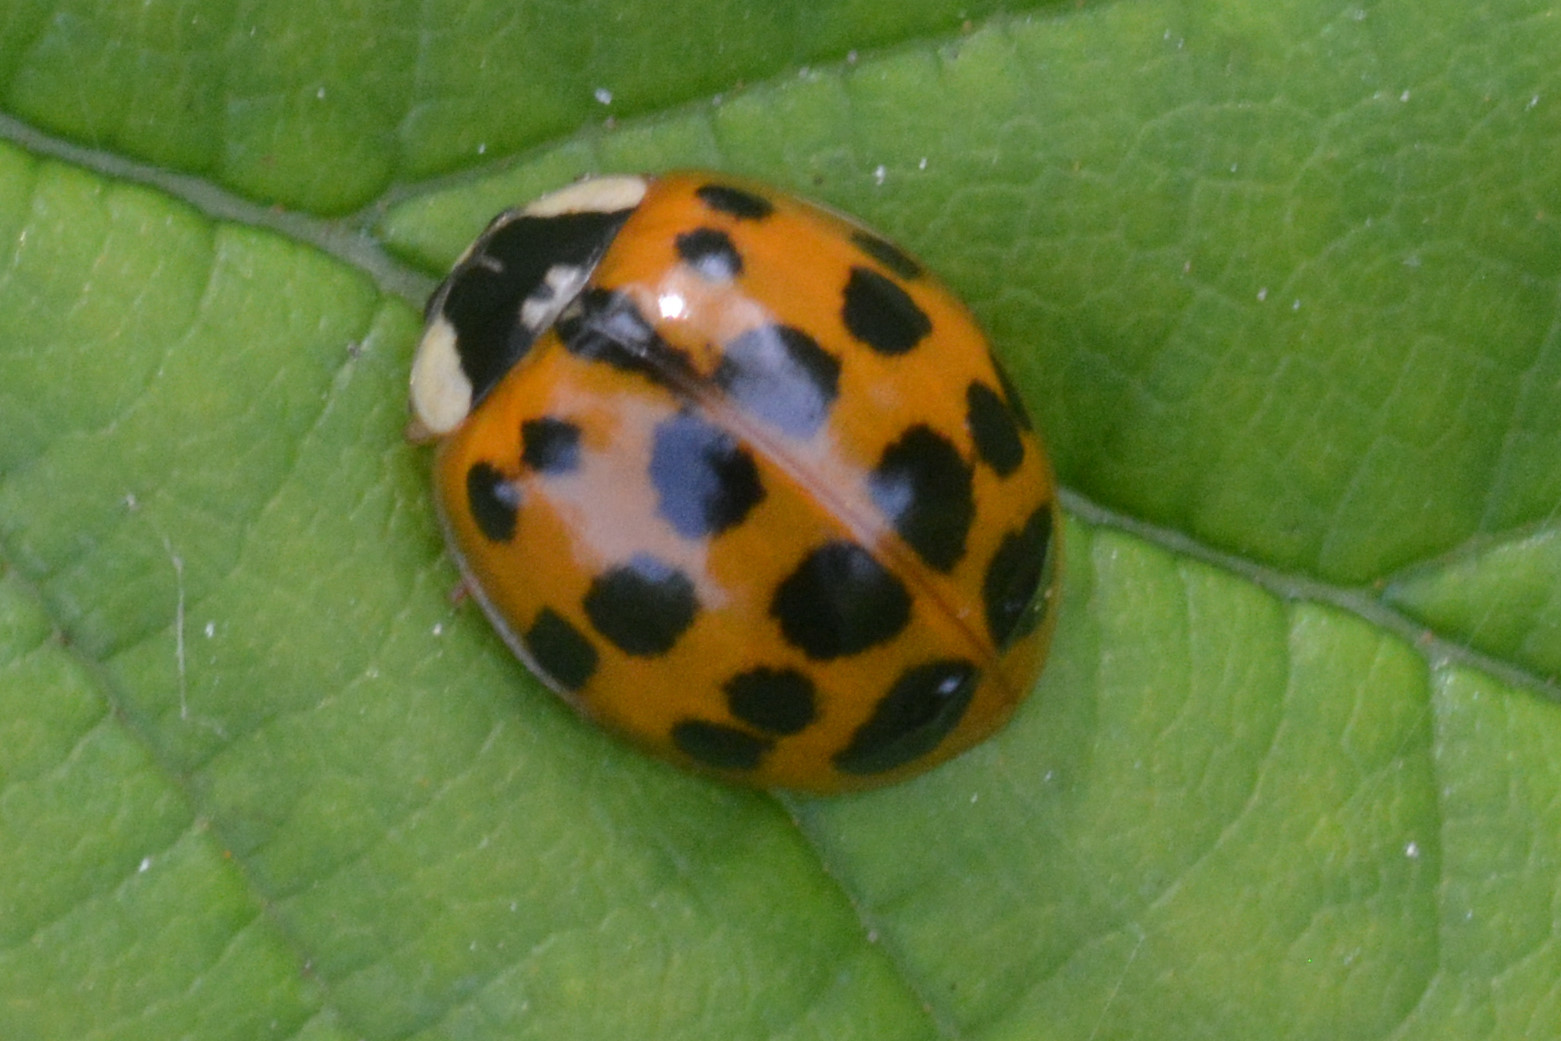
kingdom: Animalia
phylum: Arthropoda
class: Insecta
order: Coleoptera
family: Coccinellidae
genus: Harmonia
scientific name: Harmonia axyridis
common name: Harlequin ladybird
